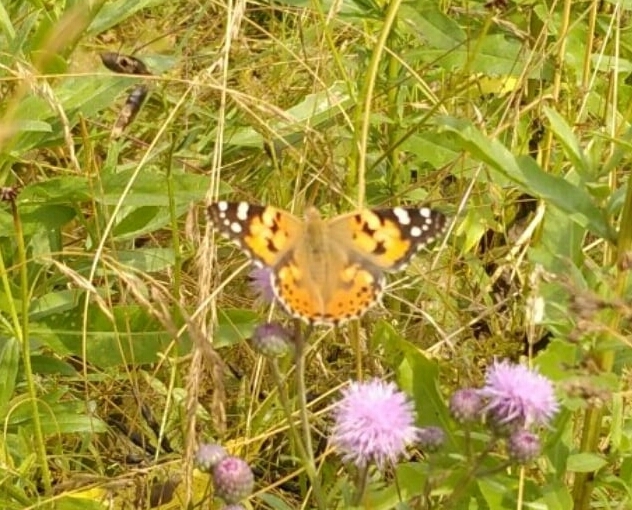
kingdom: Animalia
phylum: Arthropoda
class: Insecta
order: Lepidoptera
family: Nymphalidae
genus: Vanessa
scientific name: Vanessa cardui
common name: Painted lady
